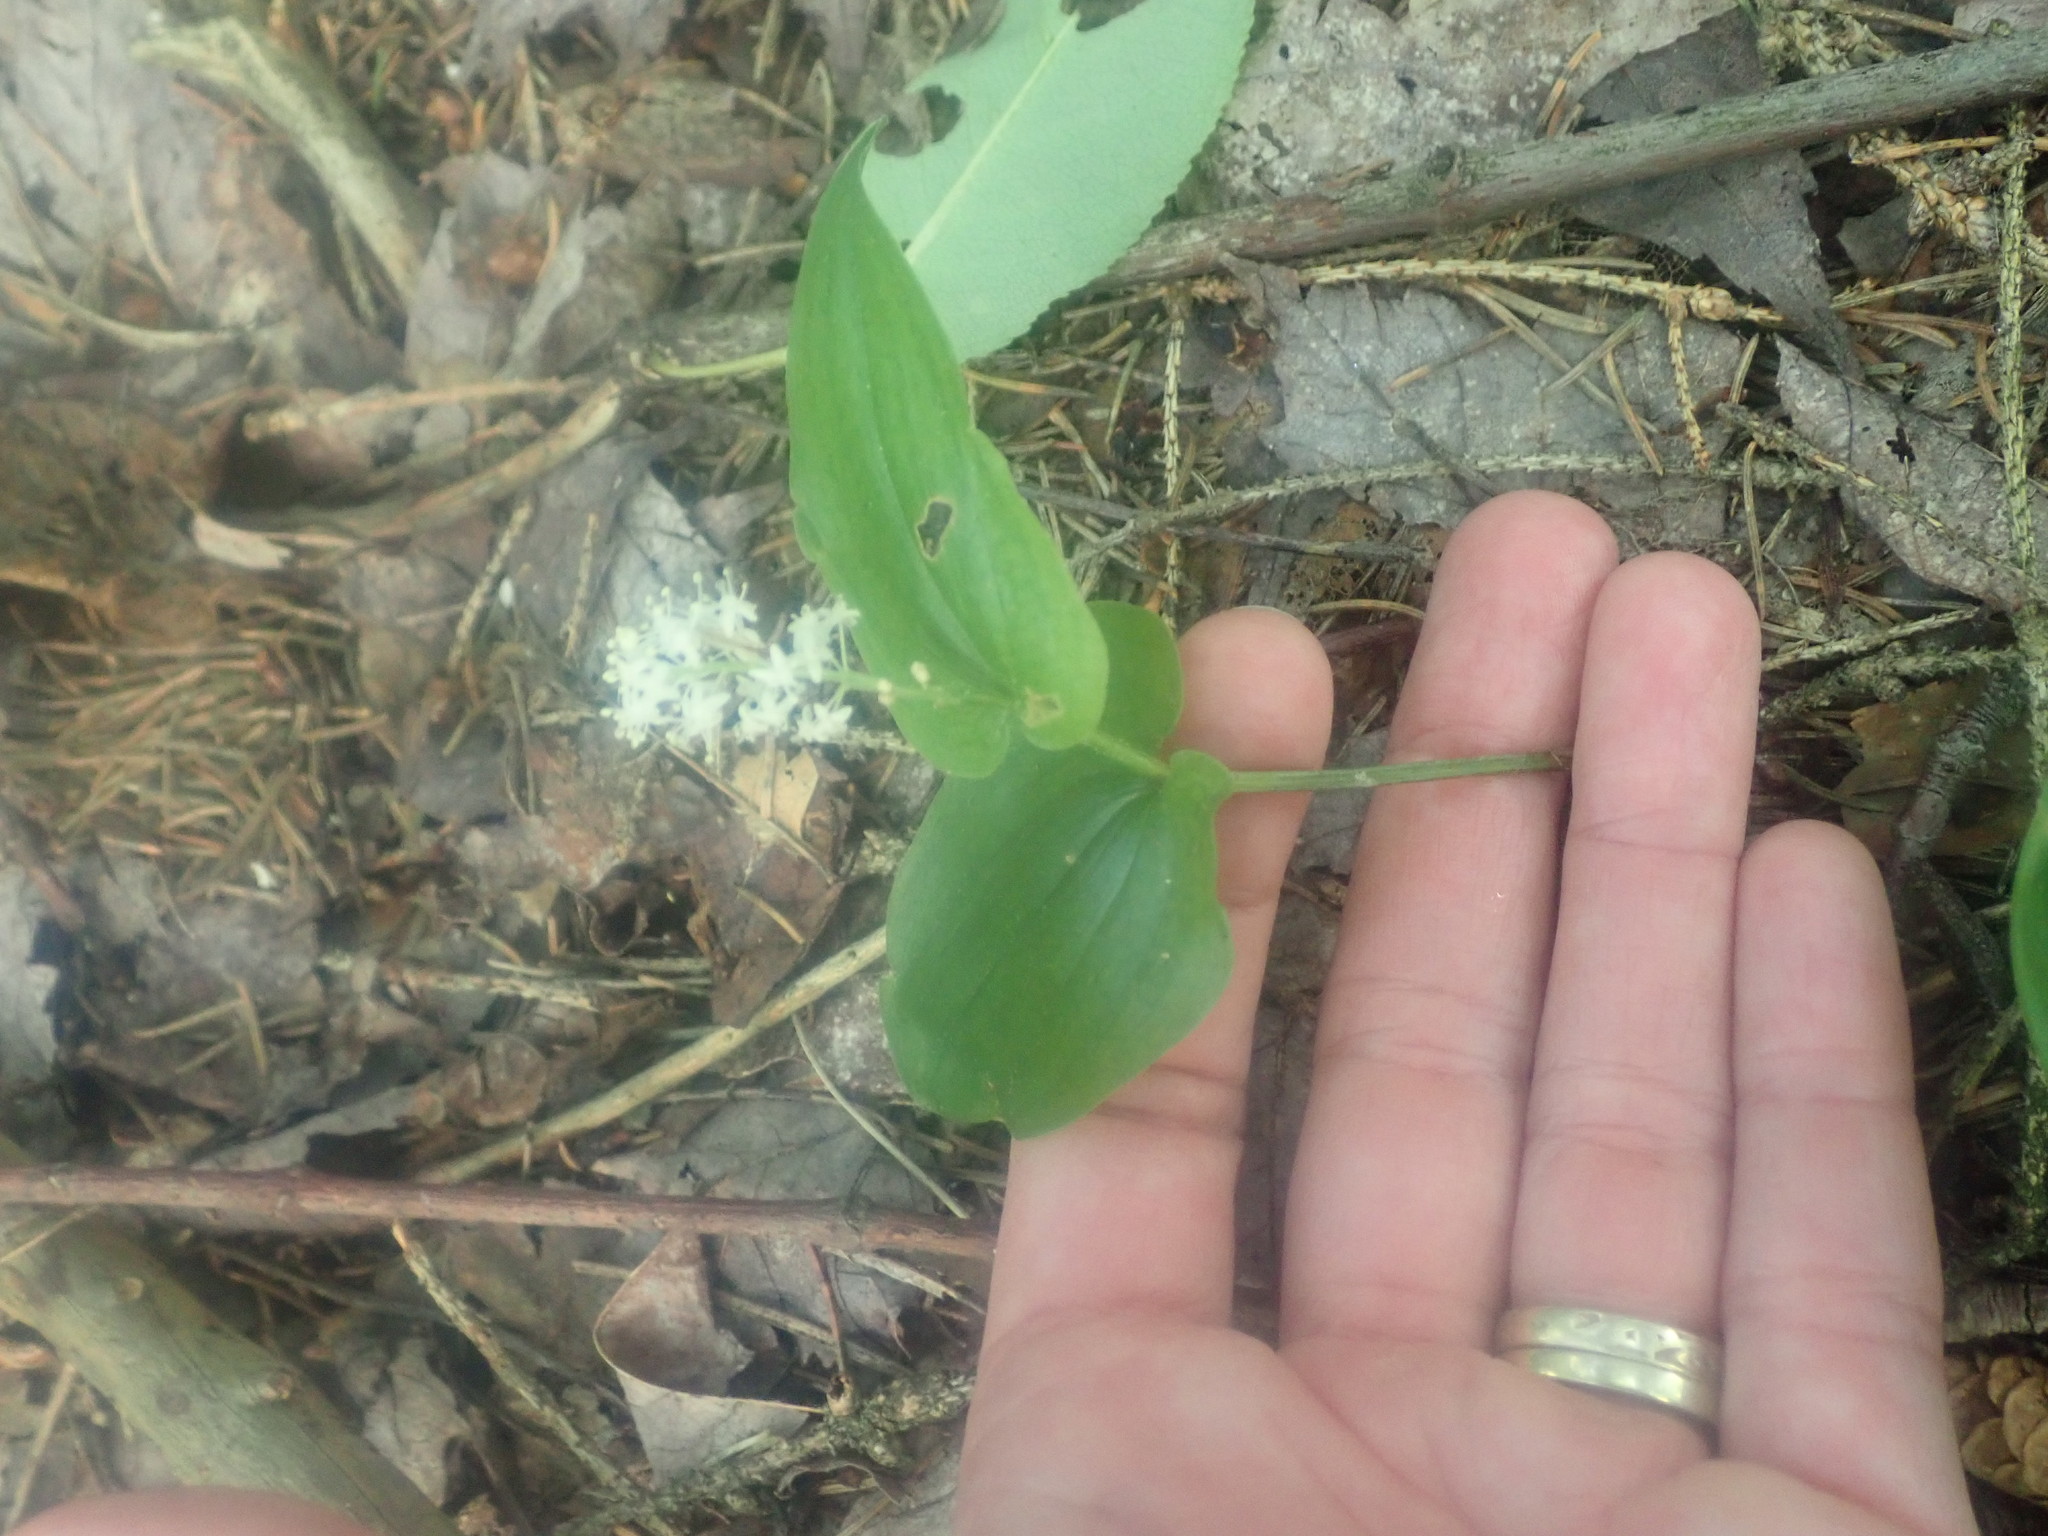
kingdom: Plantae
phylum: Tracheophyta
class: Liliopsida
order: Asparagales
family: Asparagaceae
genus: Maianthemum
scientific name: Maianthemum canadense
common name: False lily-of-the-valley
